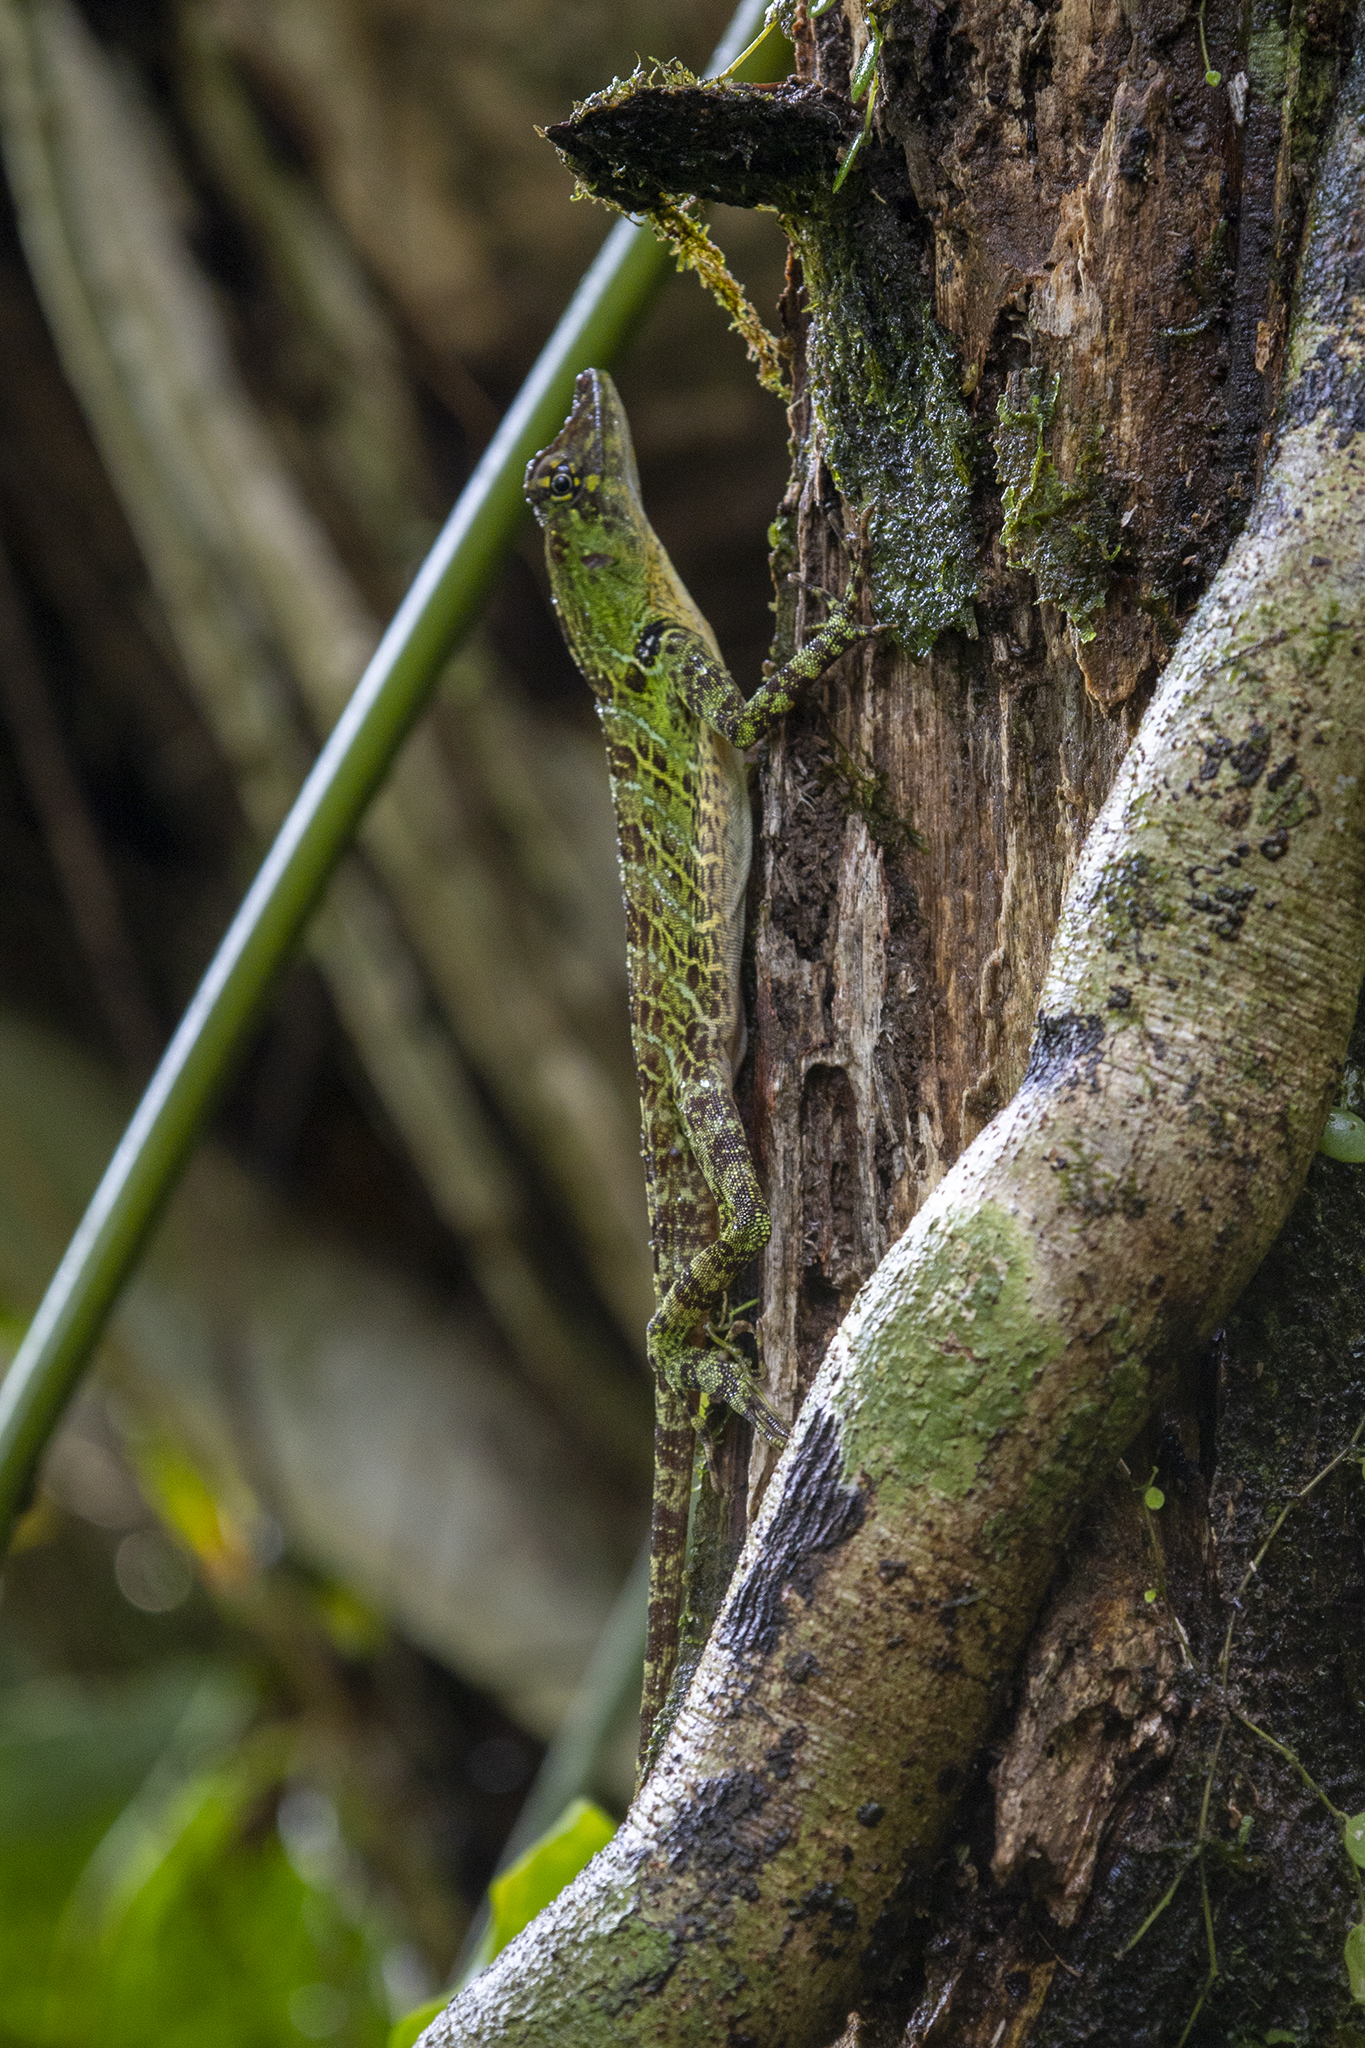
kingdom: Animalia
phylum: Chordata
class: Squamata
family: Dactyloidae
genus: Anolis
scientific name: Anolis latifrons
